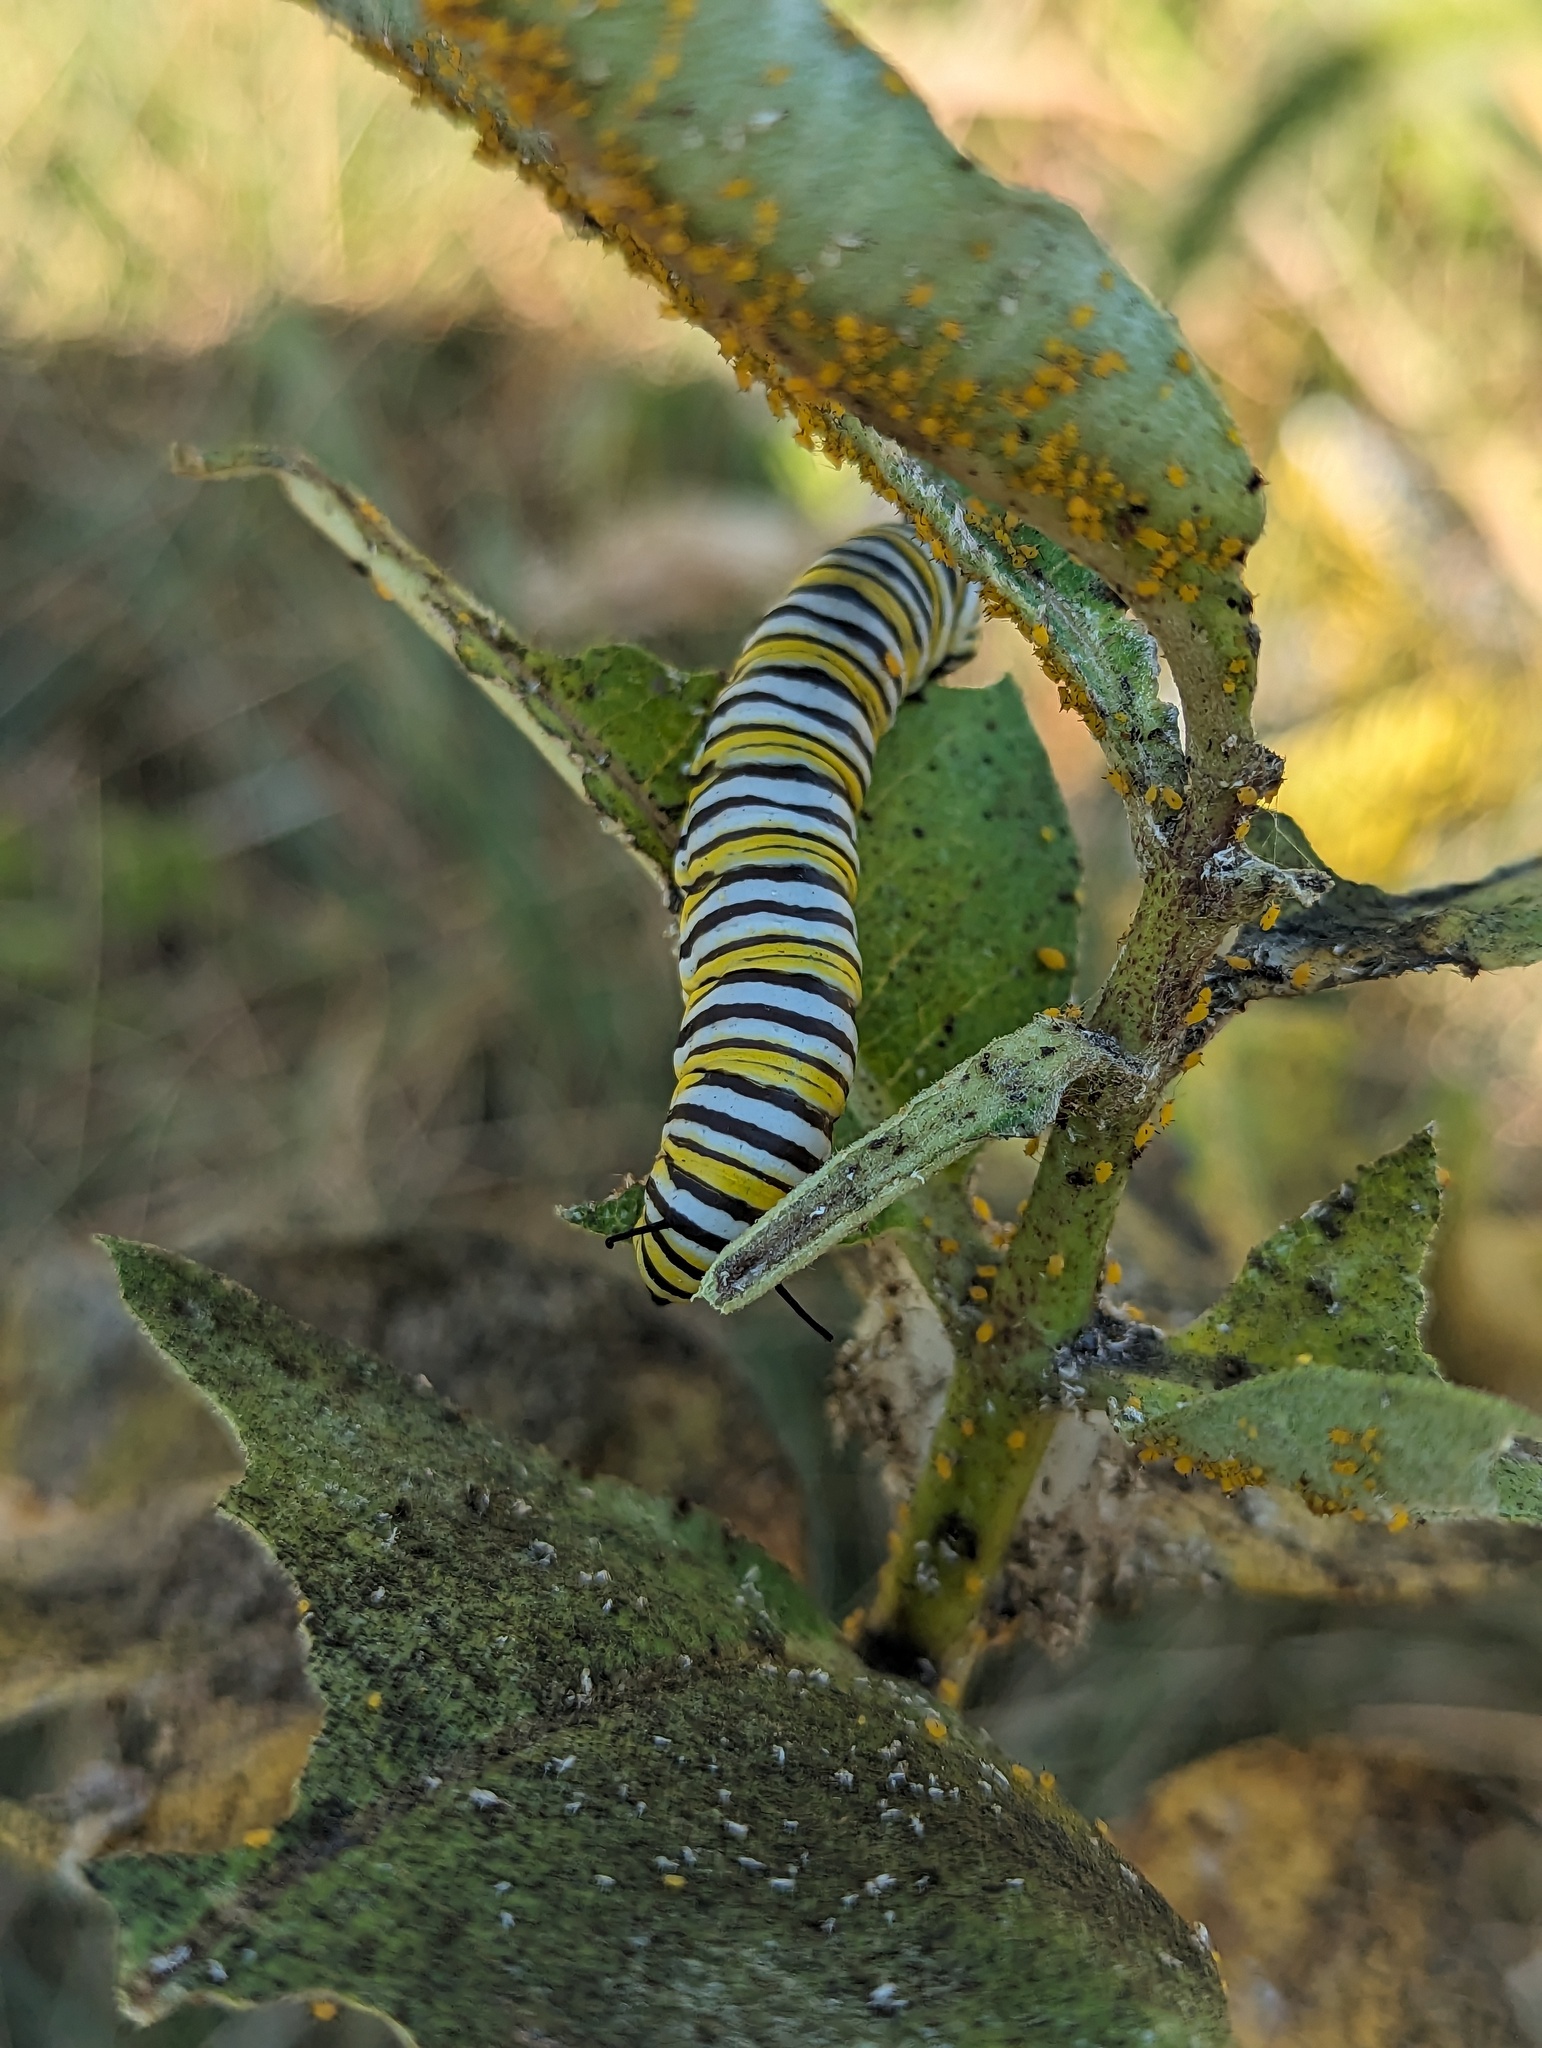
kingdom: Animalia
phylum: Arthropoda
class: Insecta
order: Lepidoptera
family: Nymphalidae
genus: Danaus
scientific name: Danaus plexippus
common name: Monarch
